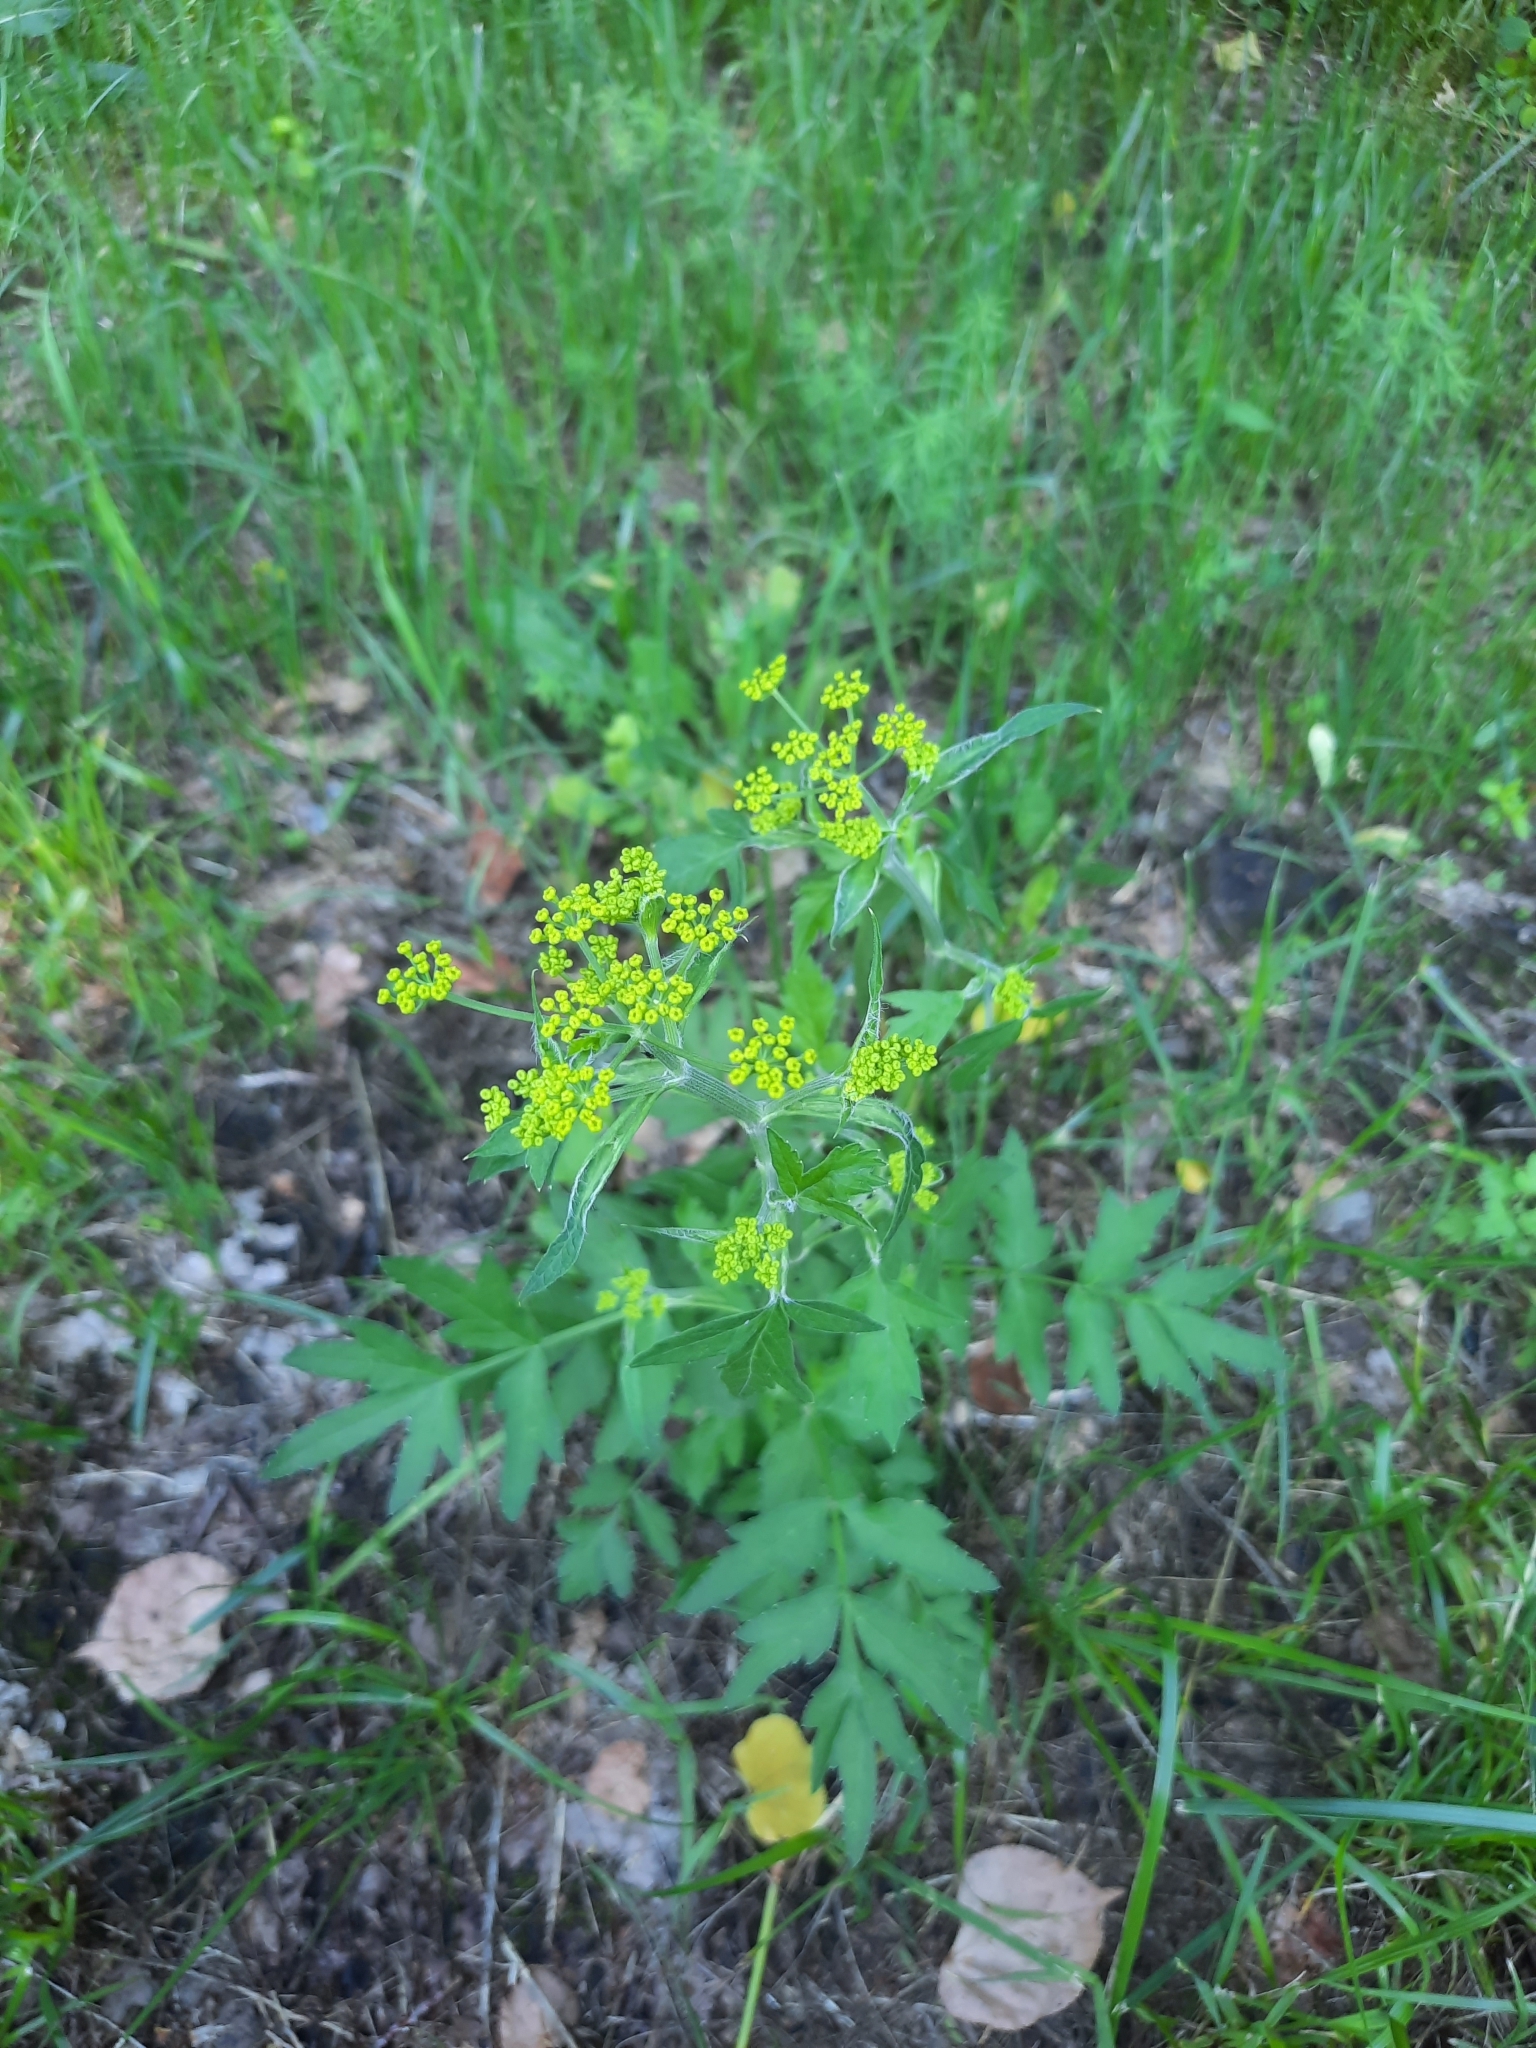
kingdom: Plantae
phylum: Tracheophyta
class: Magnoliopsida
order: Apiales
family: Apiaceae
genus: Pastinaca
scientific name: Pastinaca sativa
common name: Wild parsnip
